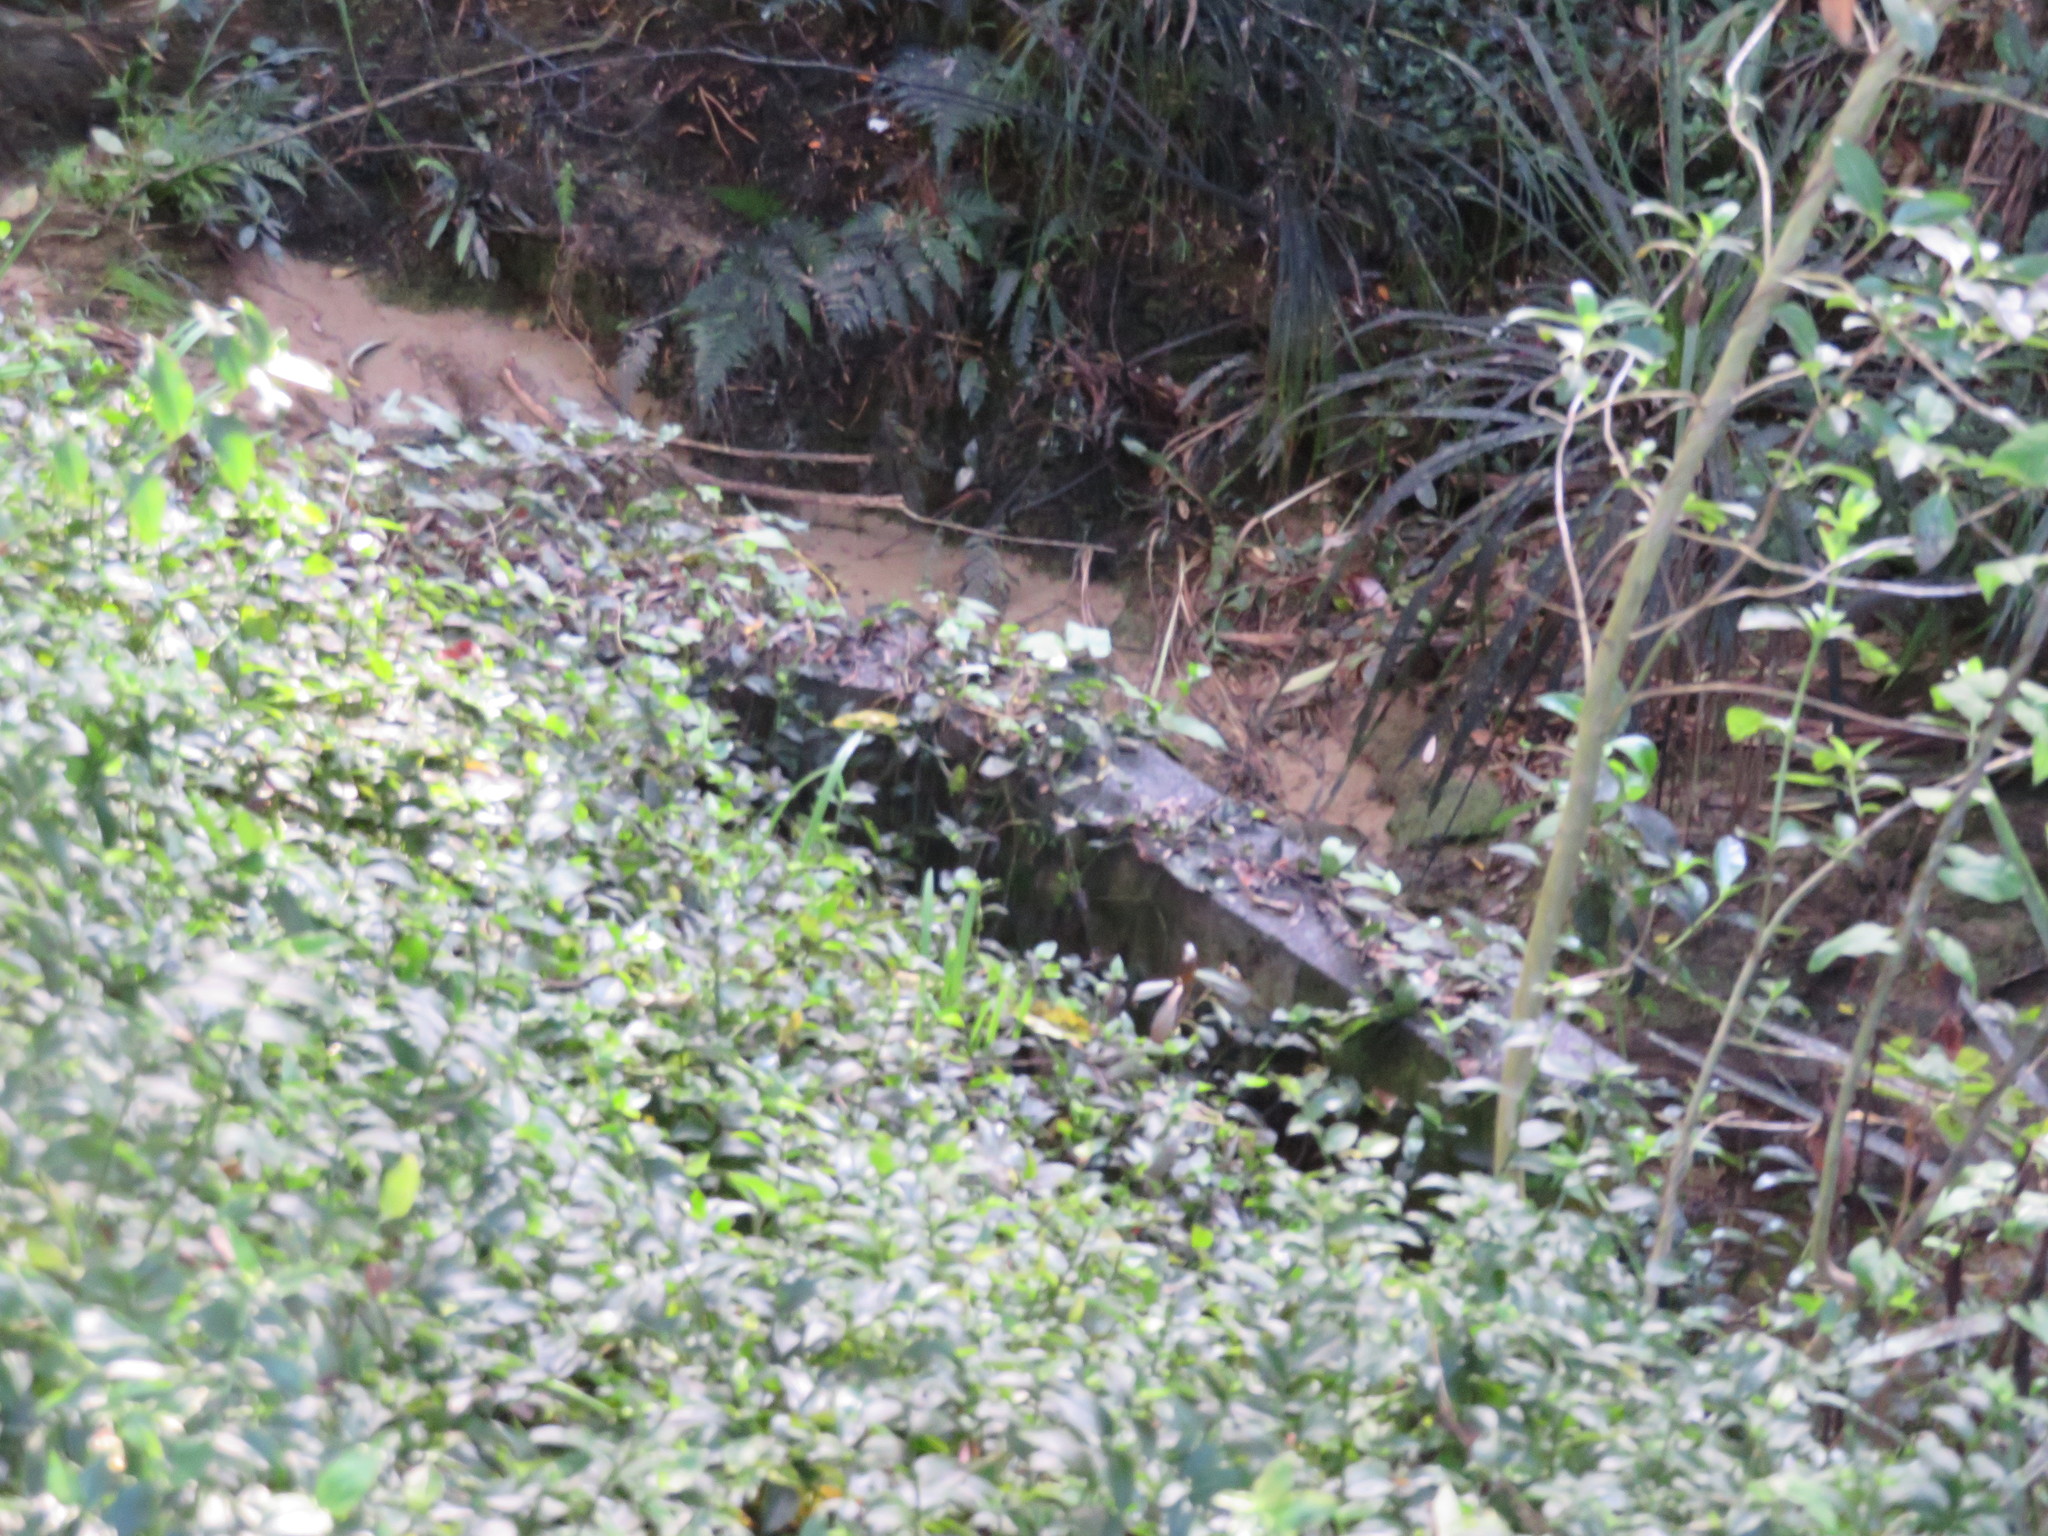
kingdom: Plantae
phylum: Tracheophyta
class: Liliopsida
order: Commelinales
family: Commelinaceae
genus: Tradescantia
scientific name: Tradescantia fluminensis
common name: Wandering-jew
